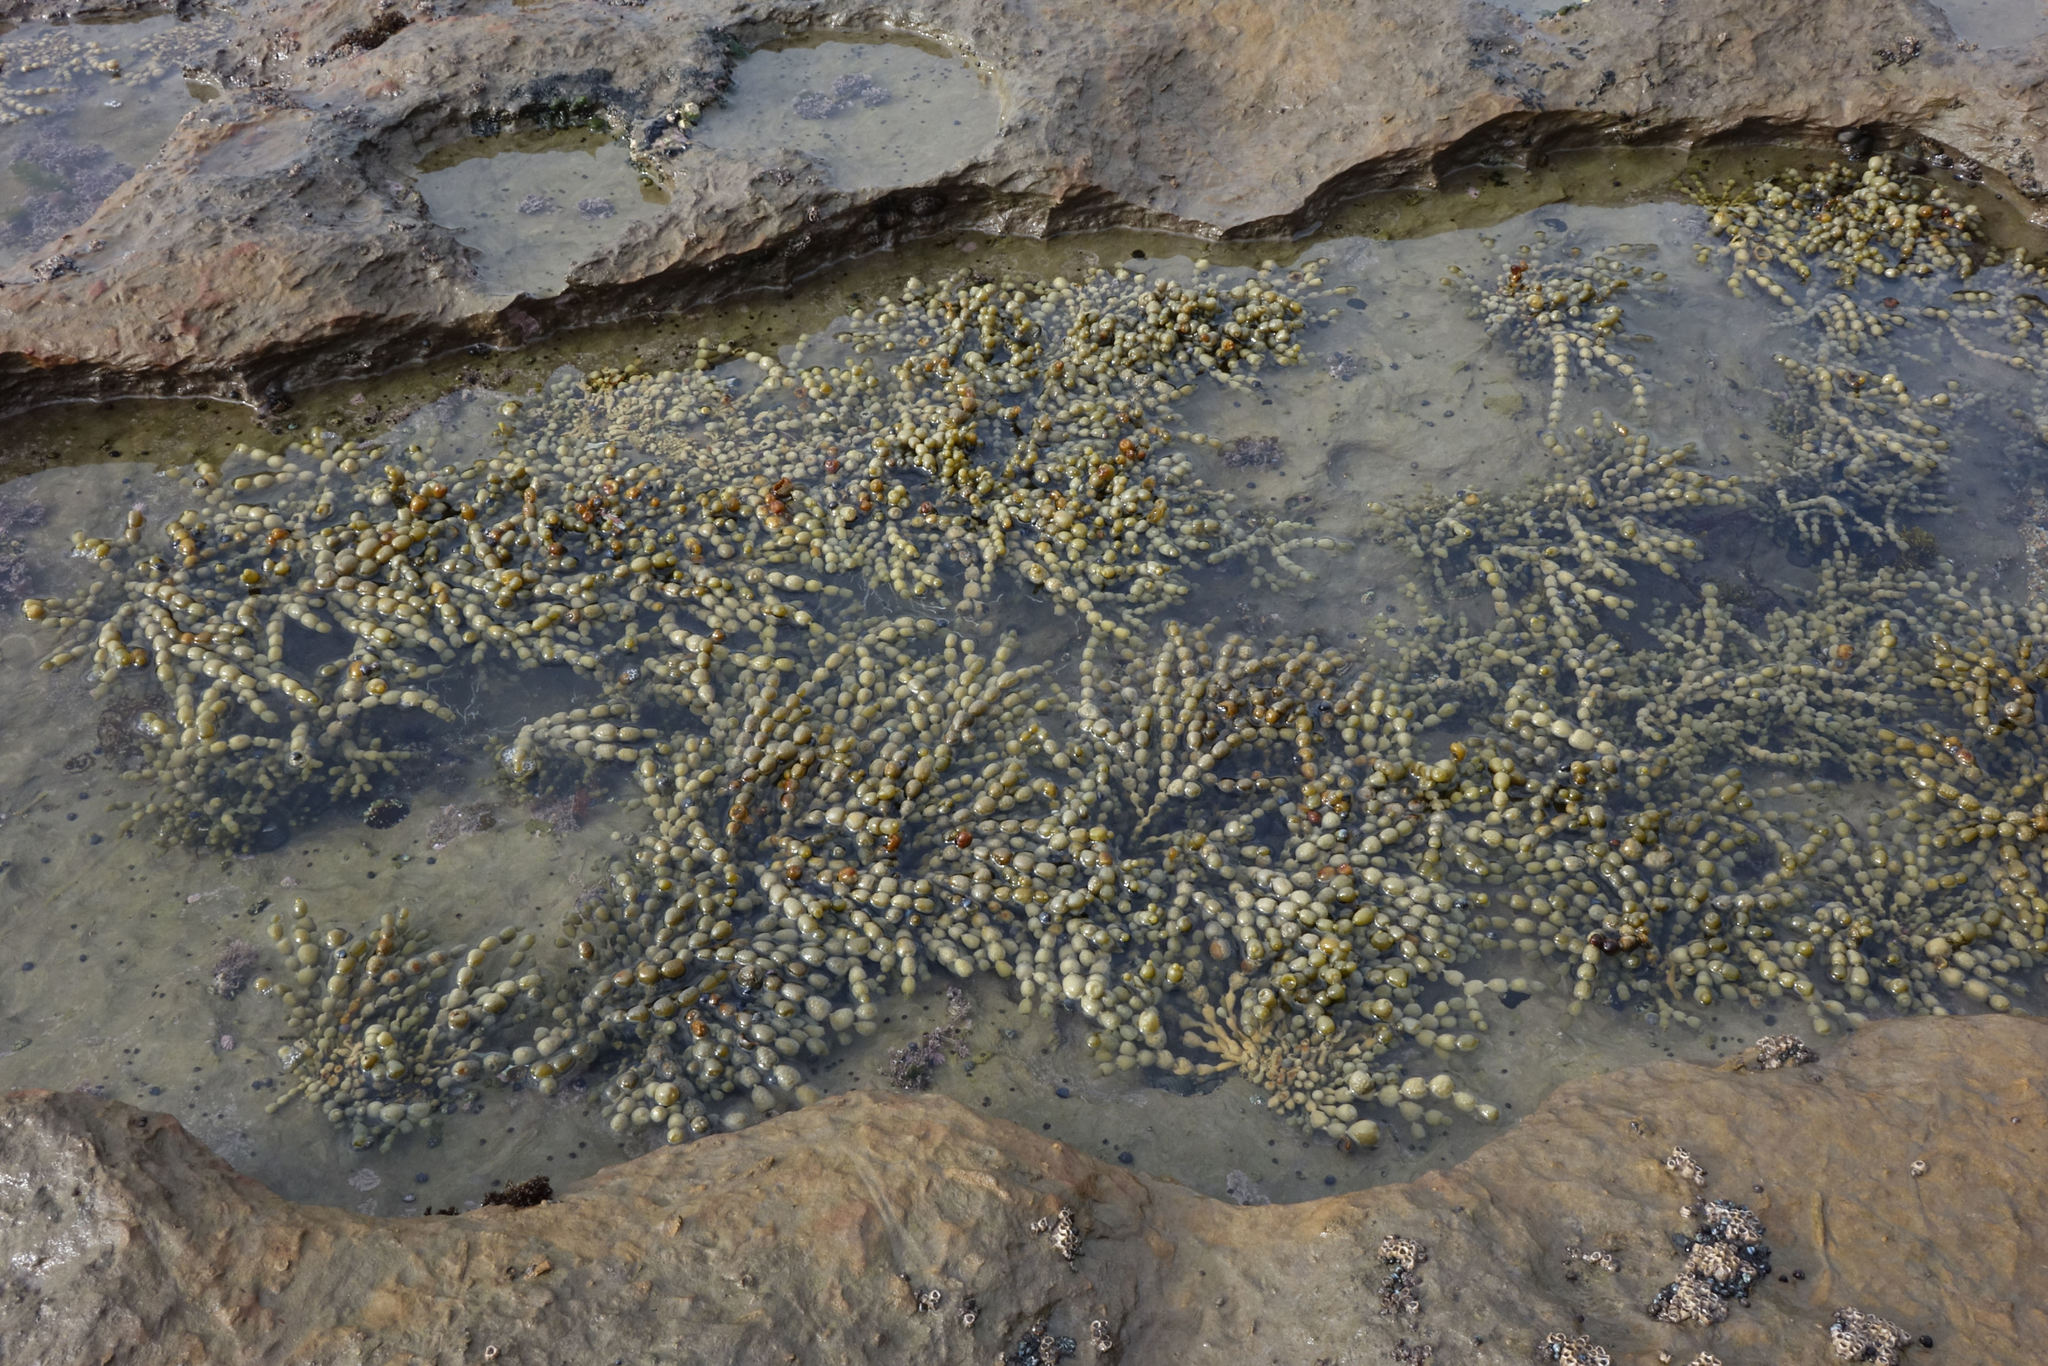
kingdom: Chromista
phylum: Ochrophyta
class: Phaeophyceae
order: Fucales
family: Hormosiraceae
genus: Hormosira
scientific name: Hormosira banksii
